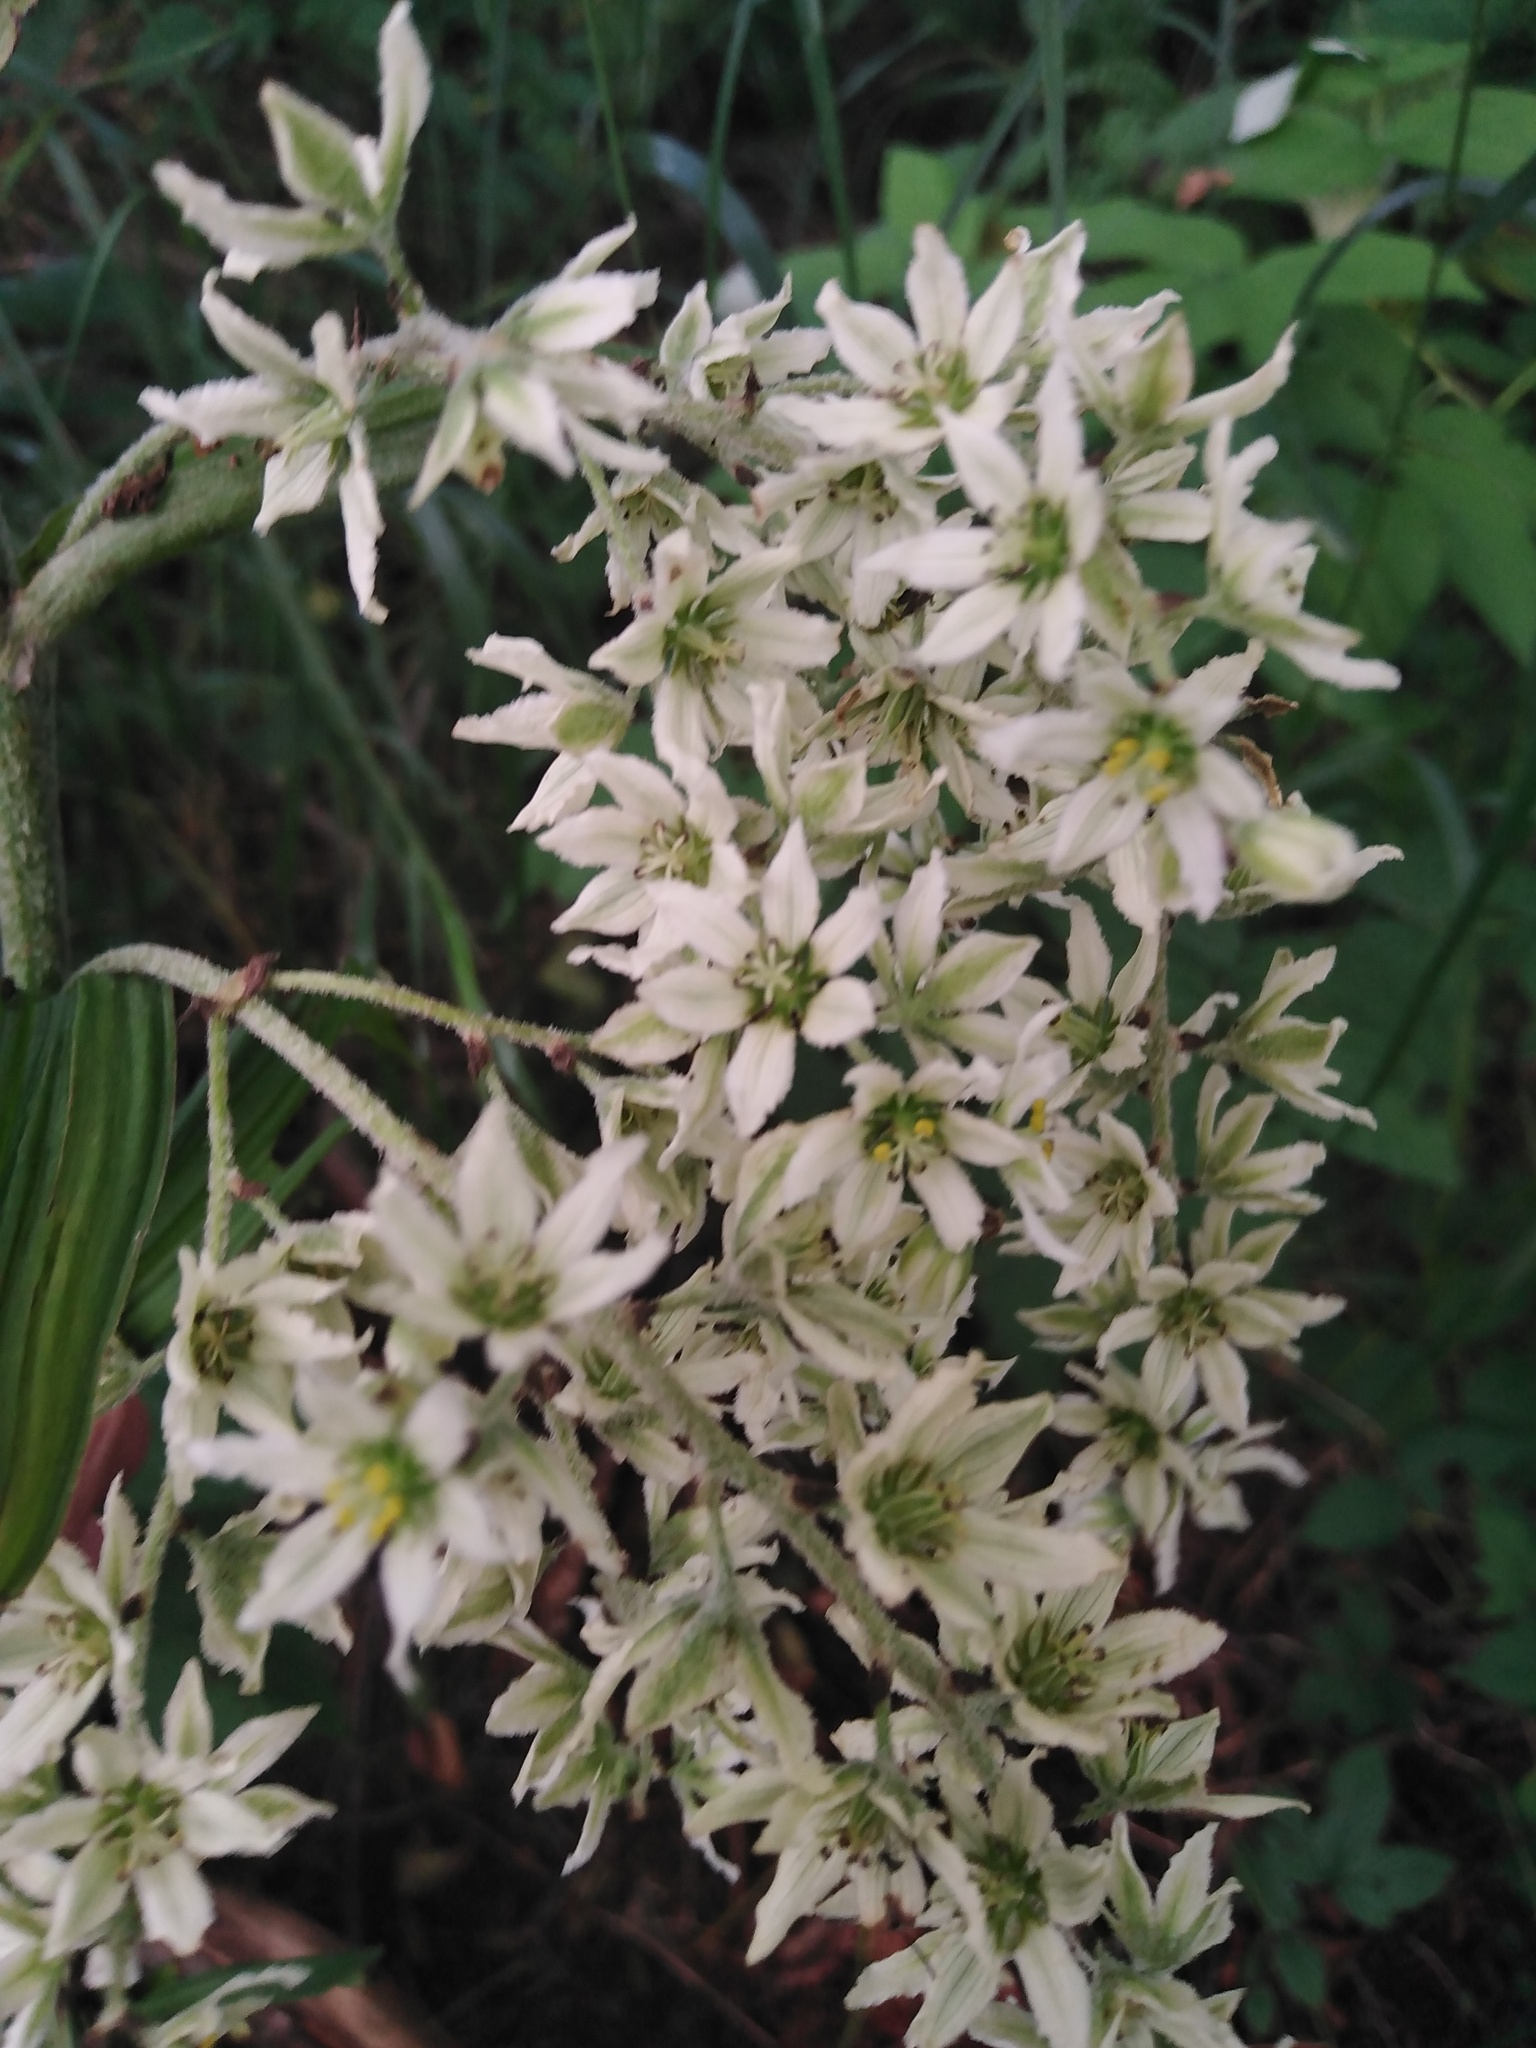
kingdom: Plantae
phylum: Tracheophyta
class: Liliopsida
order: Liliales
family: Melanthiaceae
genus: Veratrum
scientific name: Veratrum album
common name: White veratrum
